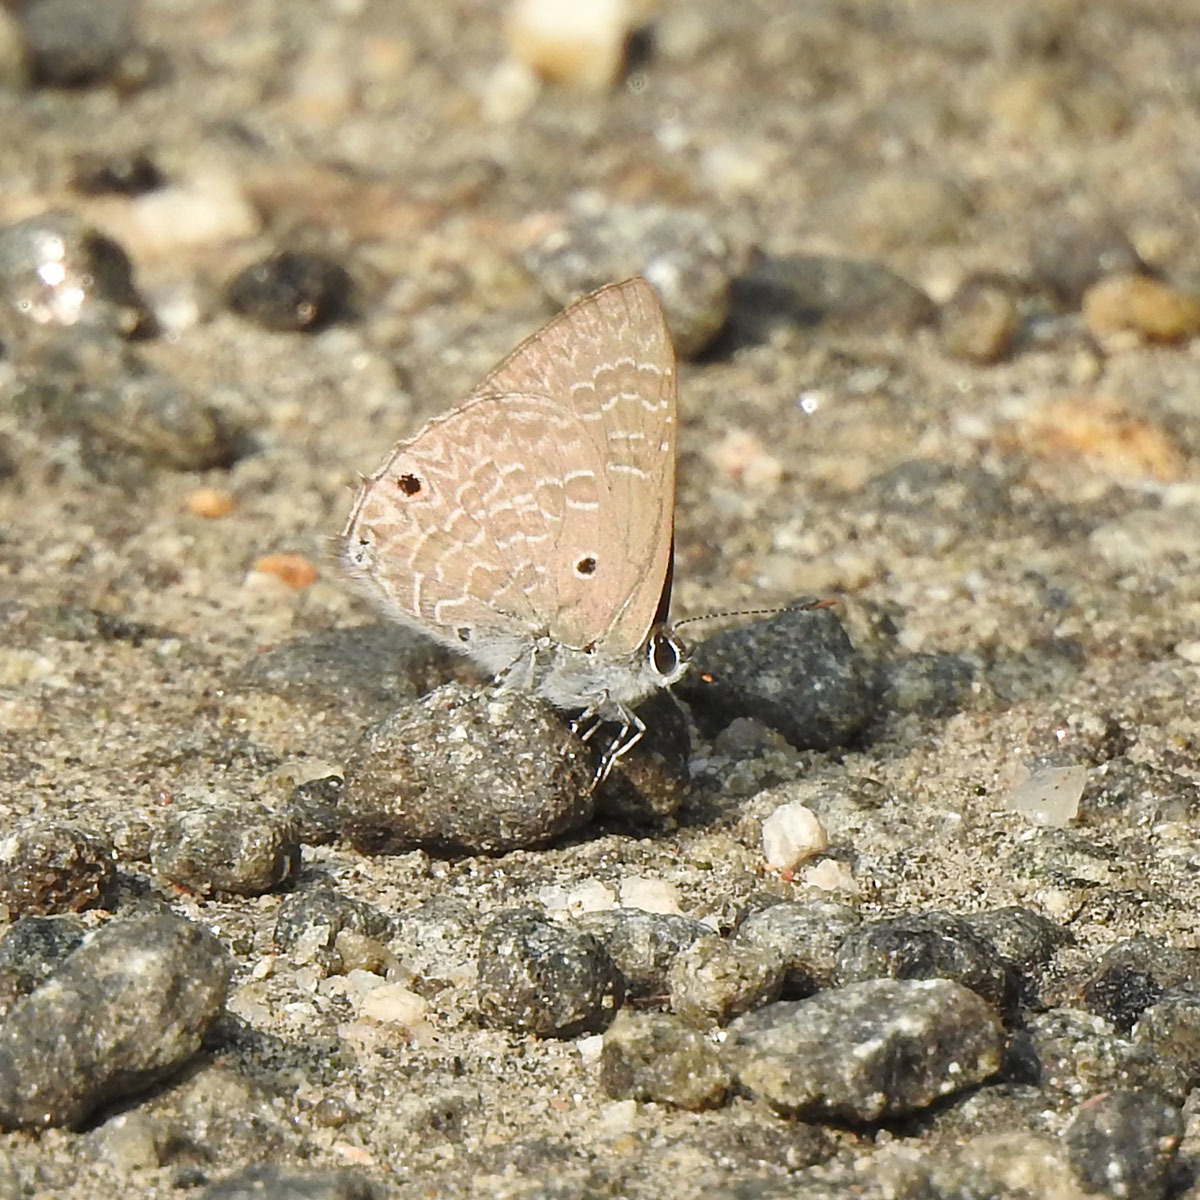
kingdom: Animalia
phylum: Arthropoda
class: Insecta
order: Lepidoptera
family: Lycaenidae
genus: Anthene
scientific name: Anthene lycaenina
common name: Pointed ciliate blue
